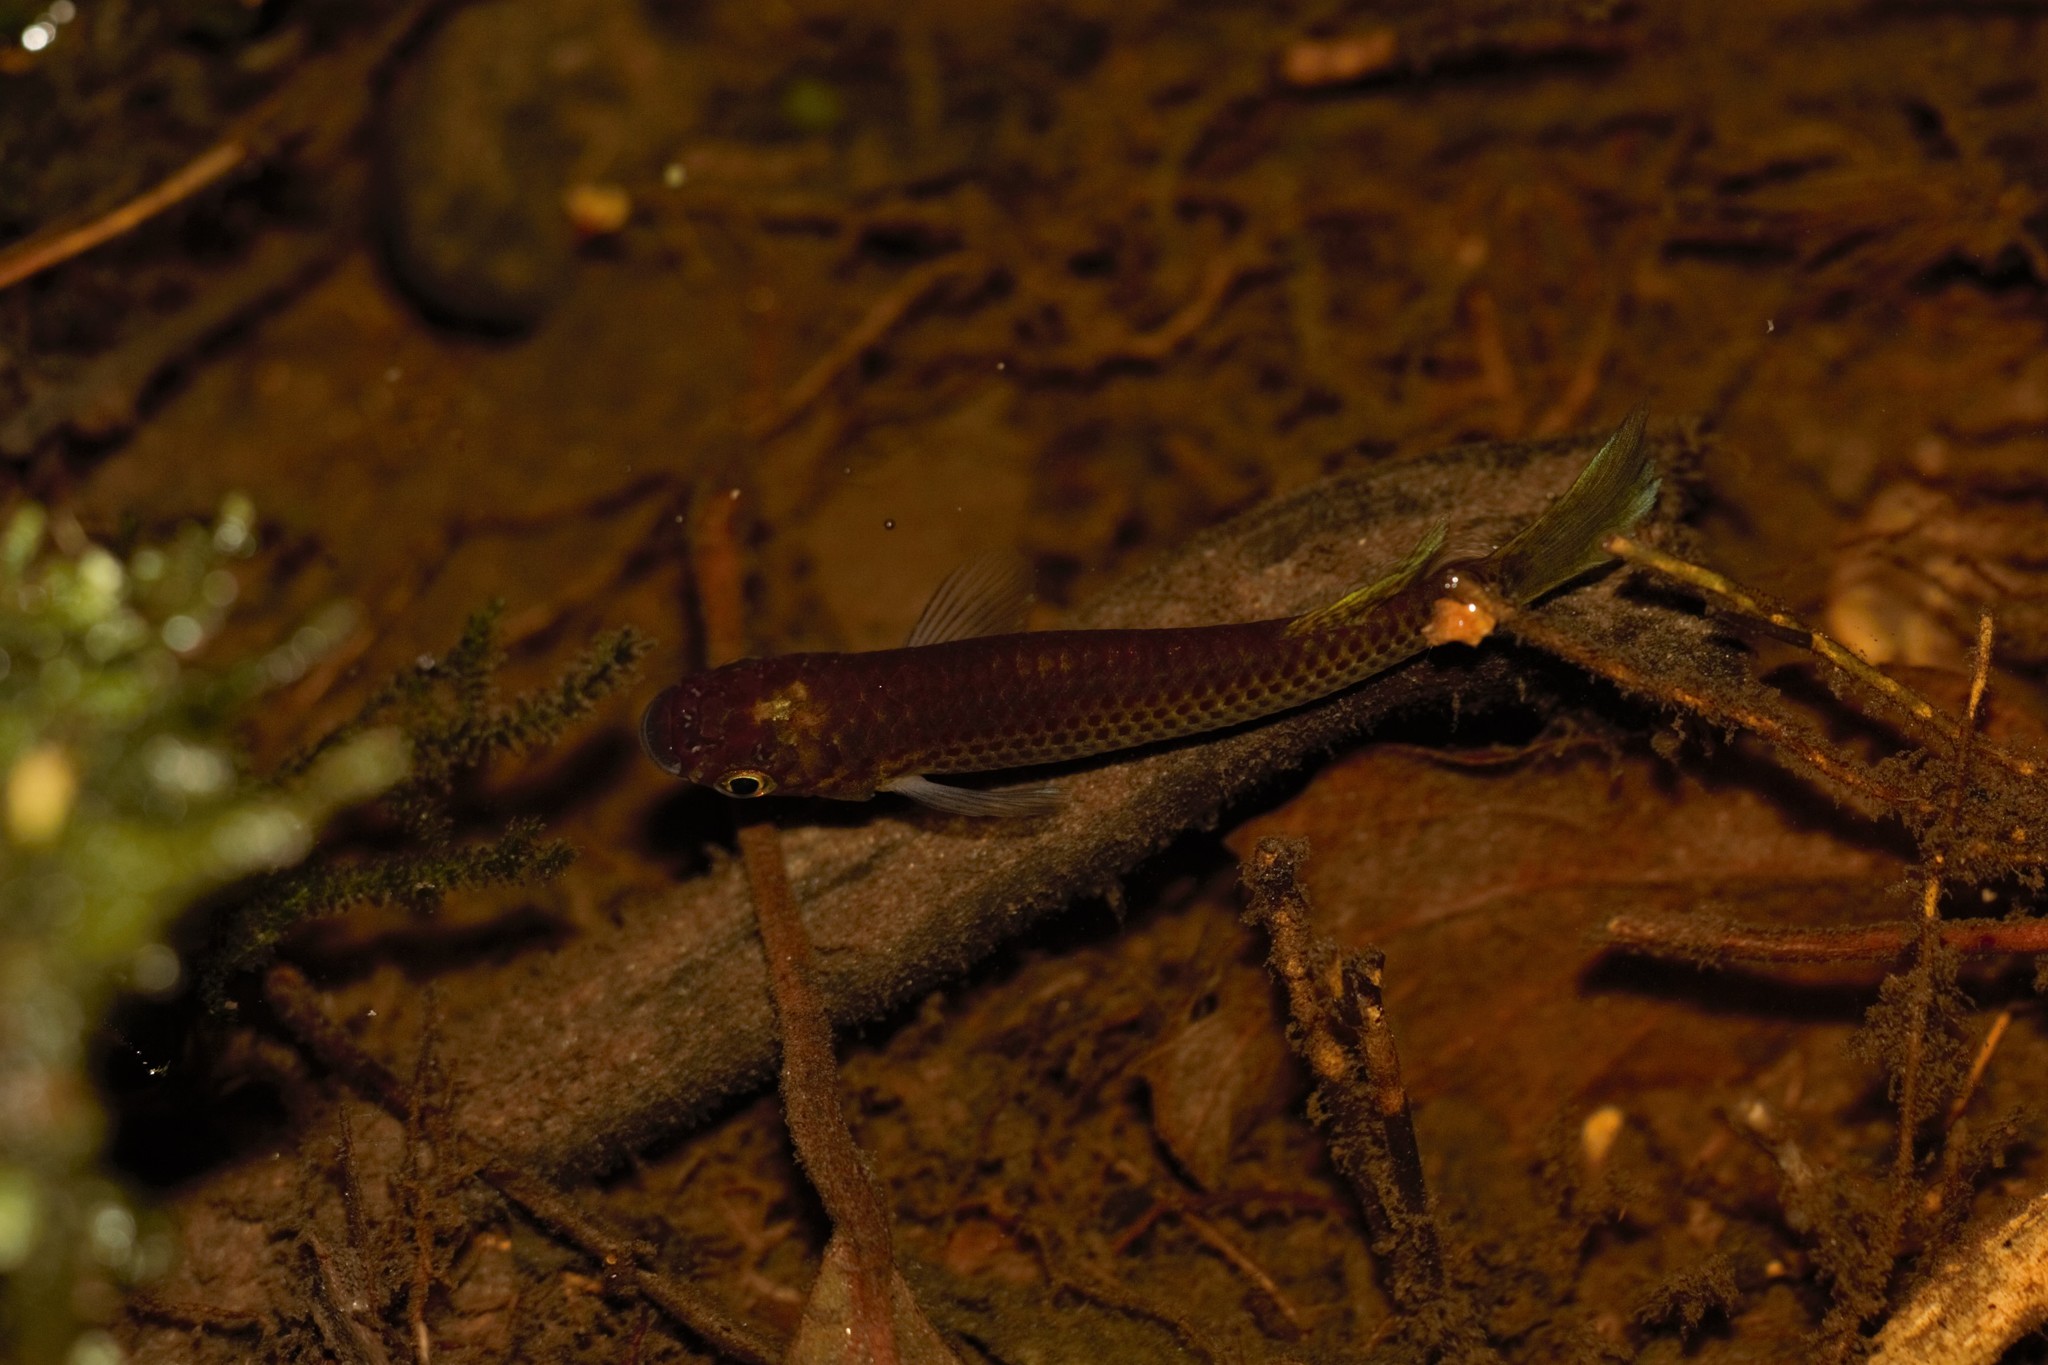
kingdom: Animalia
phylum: Chordata
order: Cyprinodontiformes
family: Nothobranchiidae
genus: Epiplatys
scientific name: Epiplatys sangmelinensis
